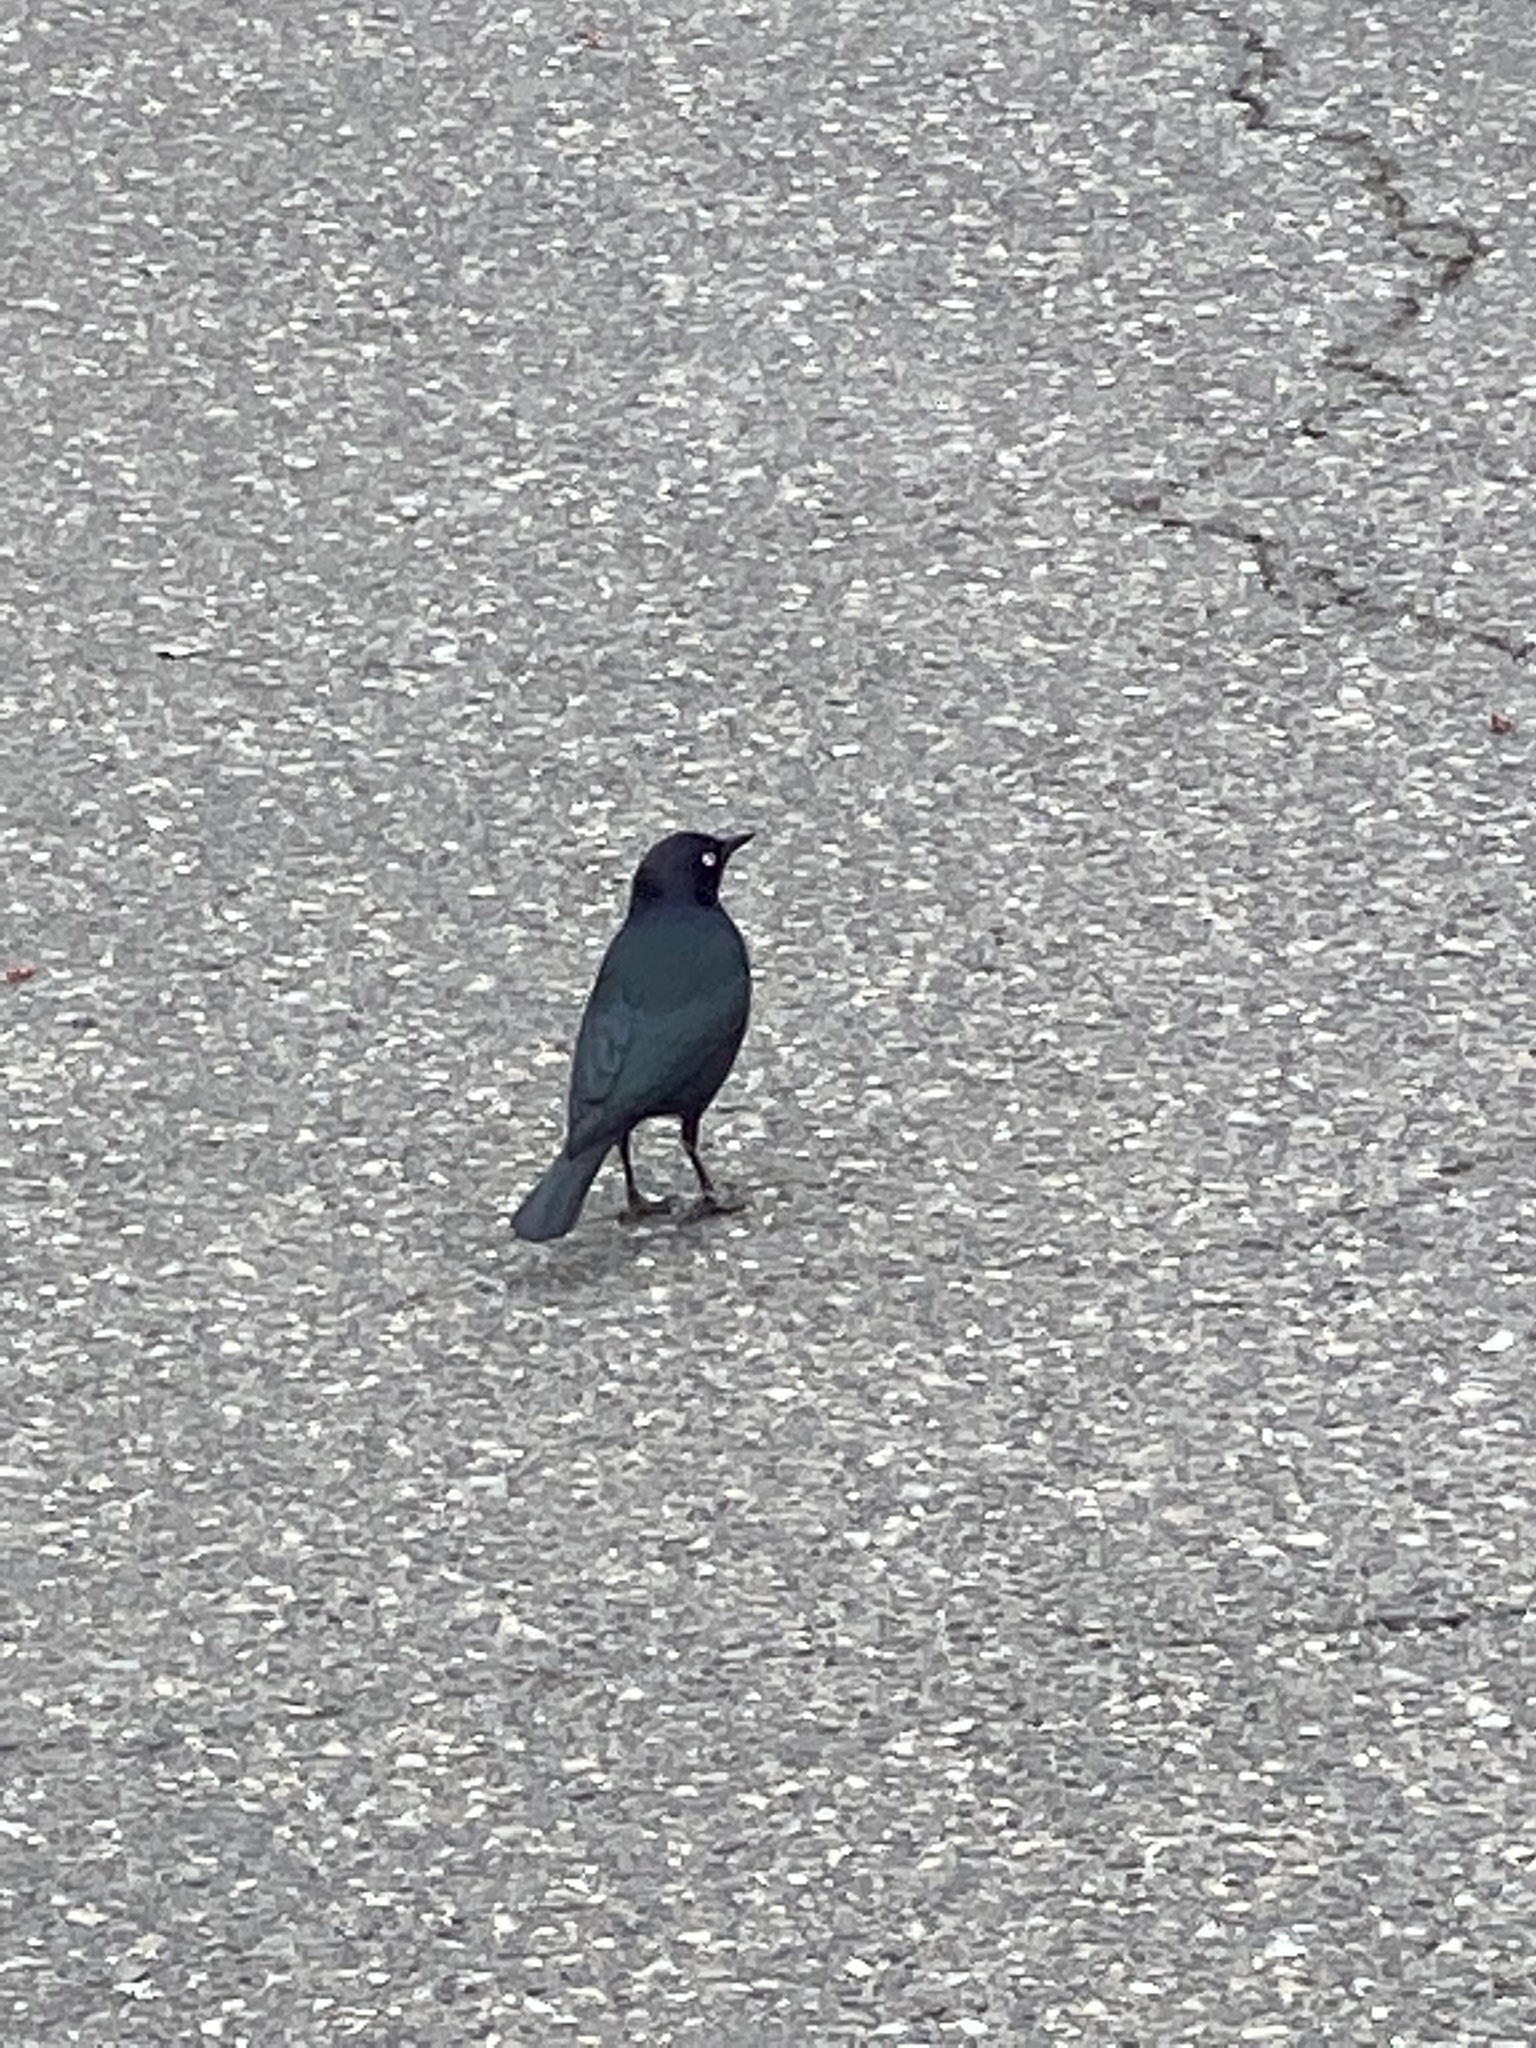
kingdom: Animalia
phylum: Chordata
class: Aves
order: Passeriformes
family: Icteridae
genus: Euphagus
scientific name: Euphagus cyanocephalus
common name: Brewer's blackbird
